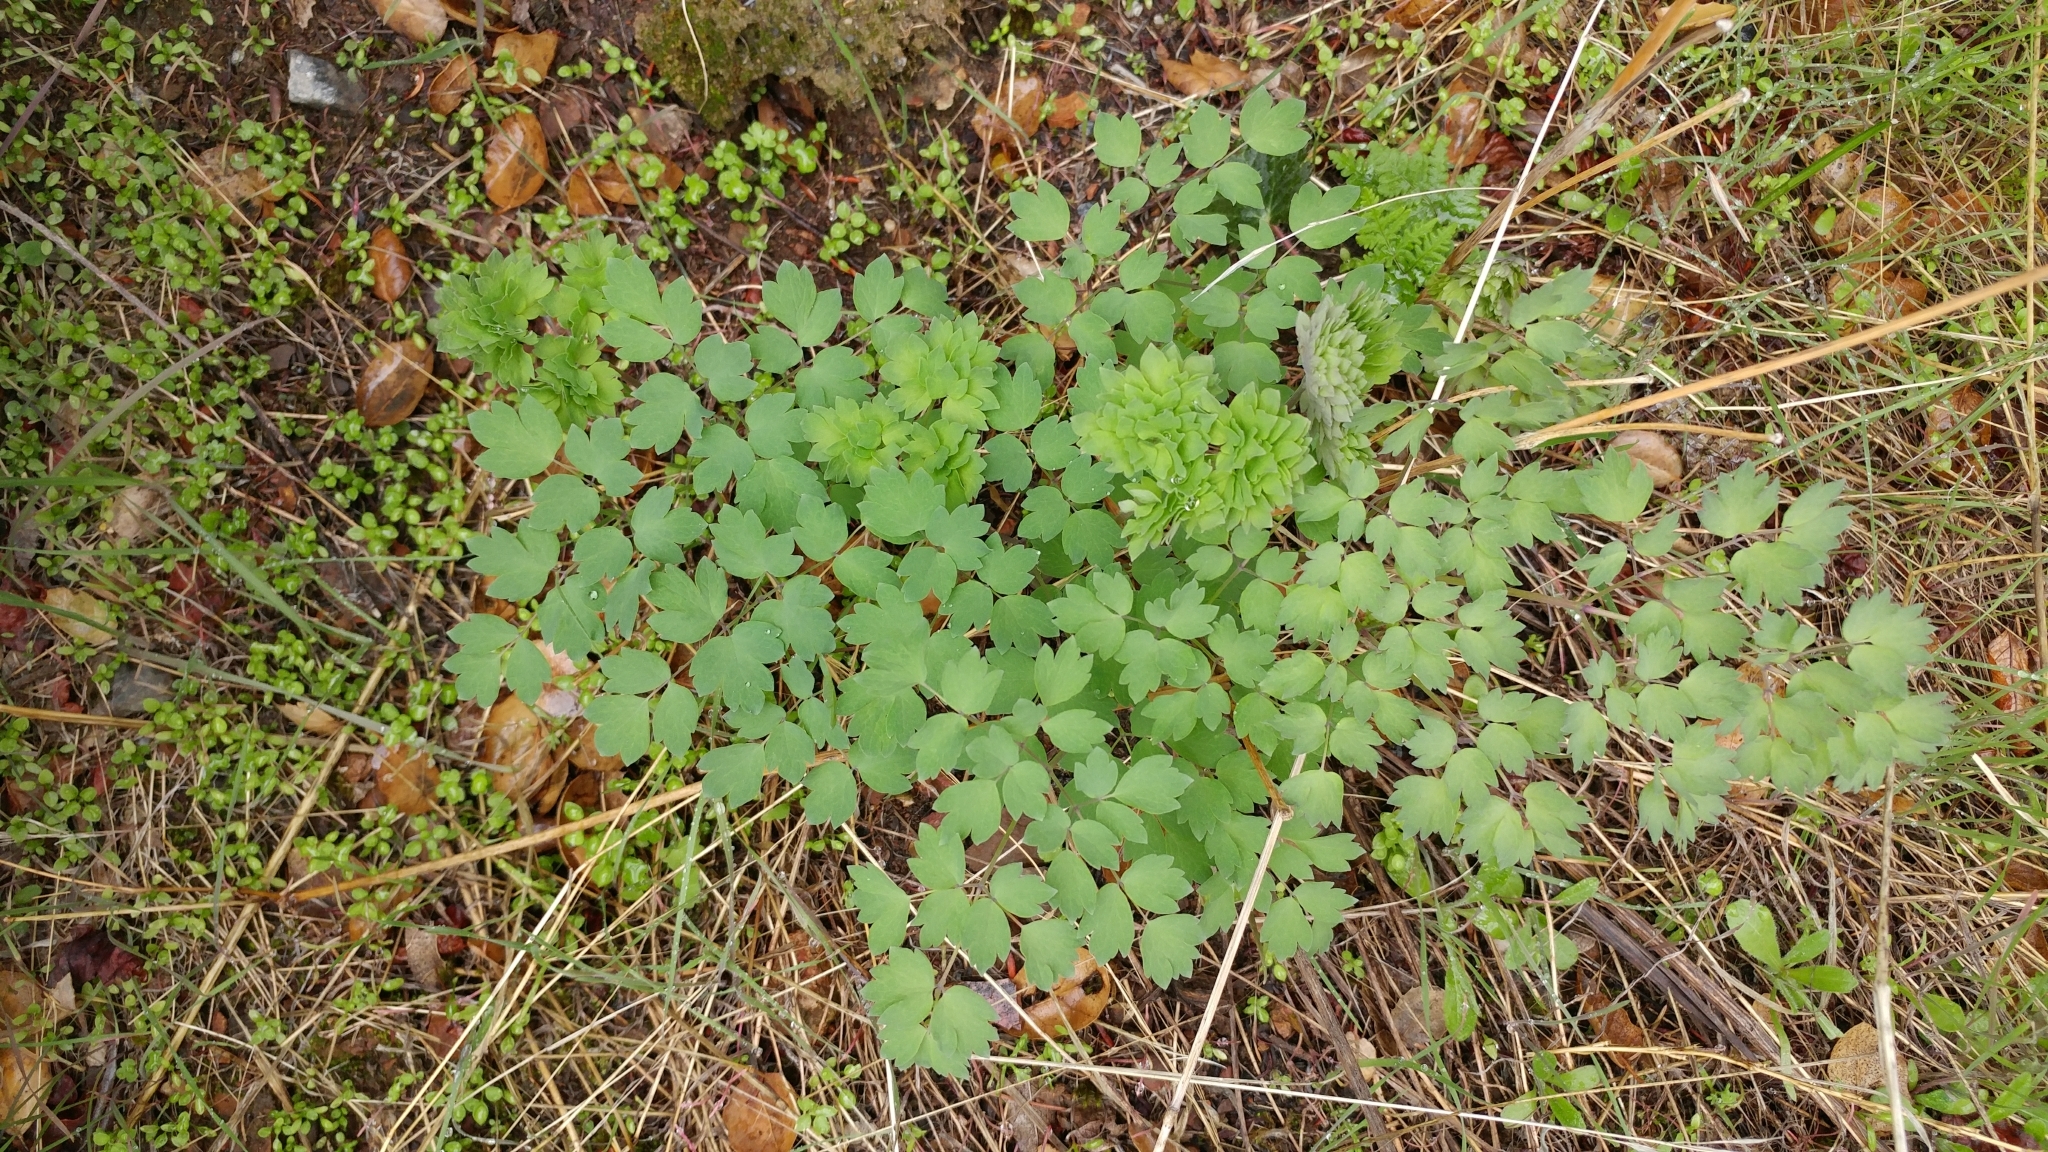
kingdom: Plantae
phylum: Tracheophyta
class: Magnoliopsida
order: Ranunculales
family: Ranunculaceae
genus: Thalictrum
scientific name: Thalictrum fendleri
